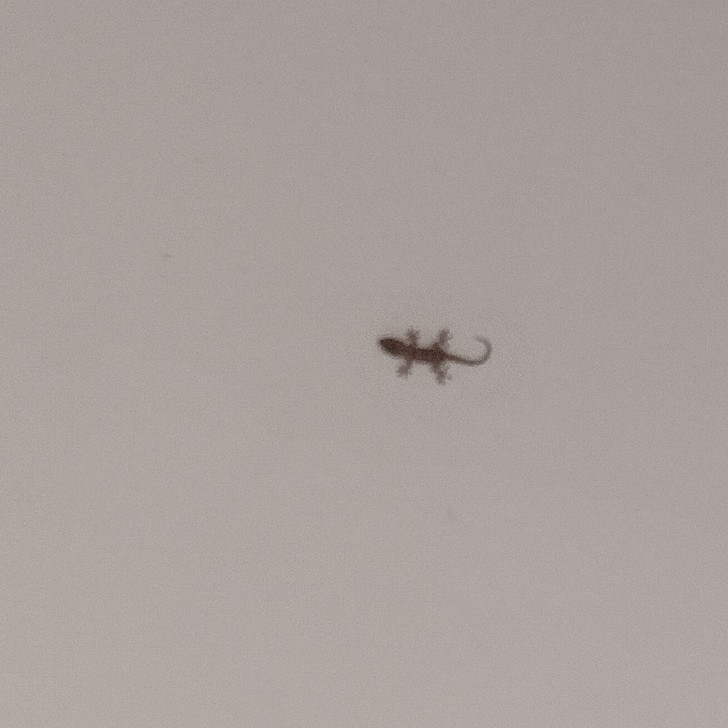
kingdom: Animalia
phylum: Chordata
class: Squamata
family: Phyllodactylidae
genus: Tarentola
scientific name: Tarentola mauritanica
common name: Moorish gecko
